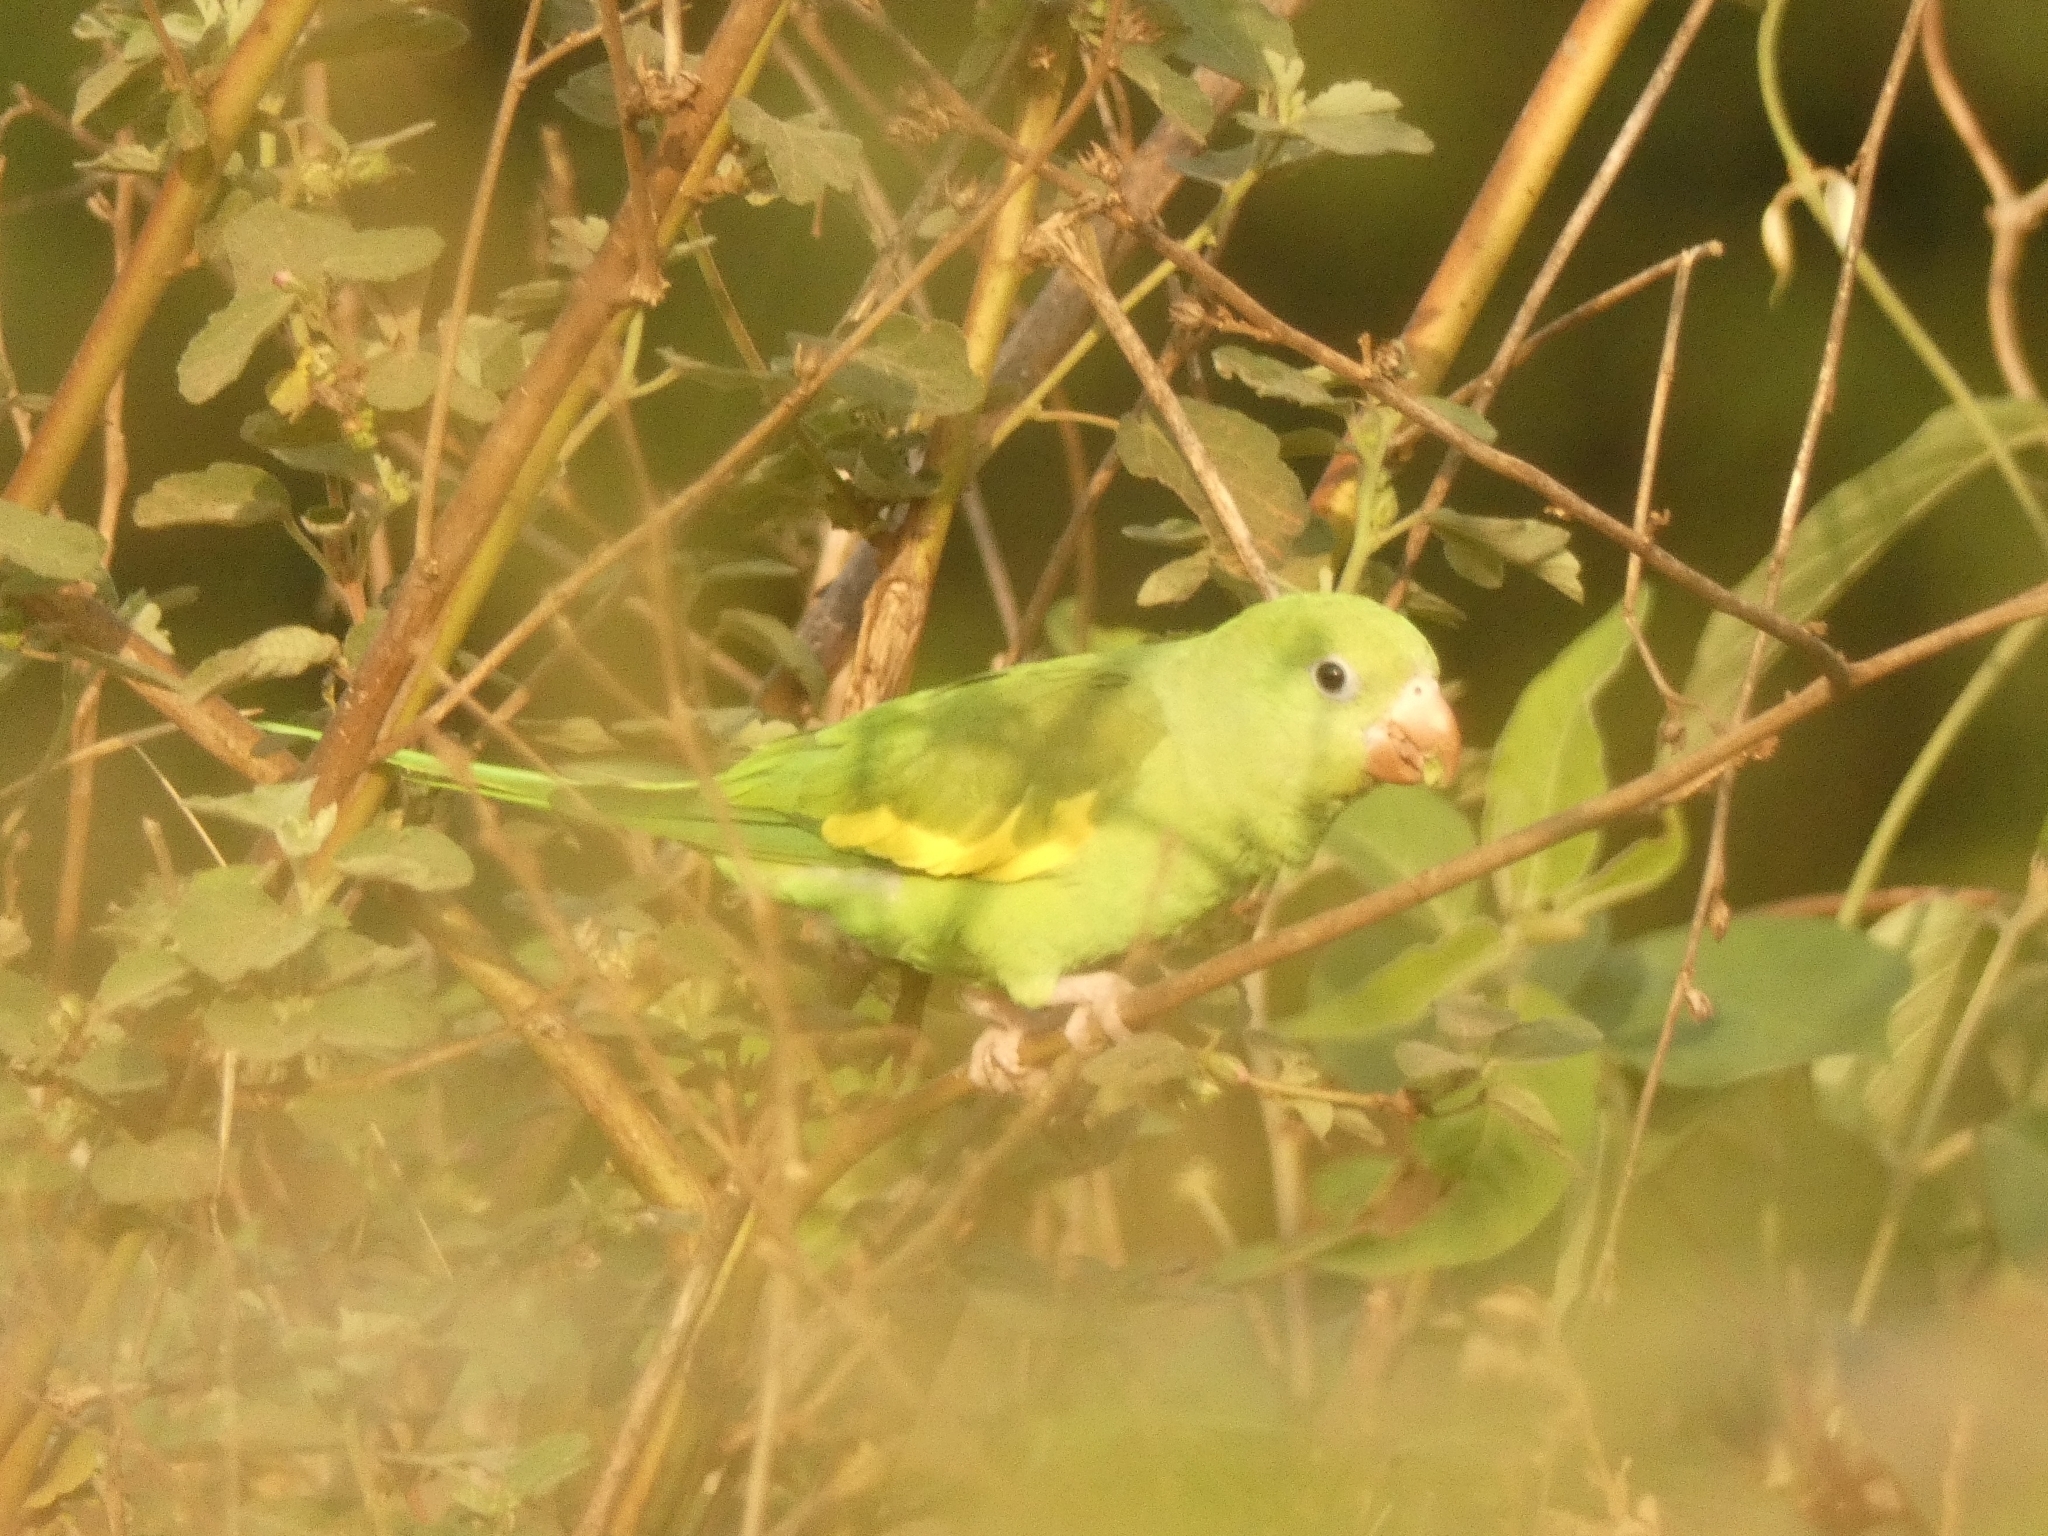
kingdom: Animalia
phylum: Chordata
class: Aves
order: Psittaciformes
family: Psittacidae
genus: Brotogeris
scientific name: Brotogeris chiriri
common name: Yellow-chevroned parakeet
